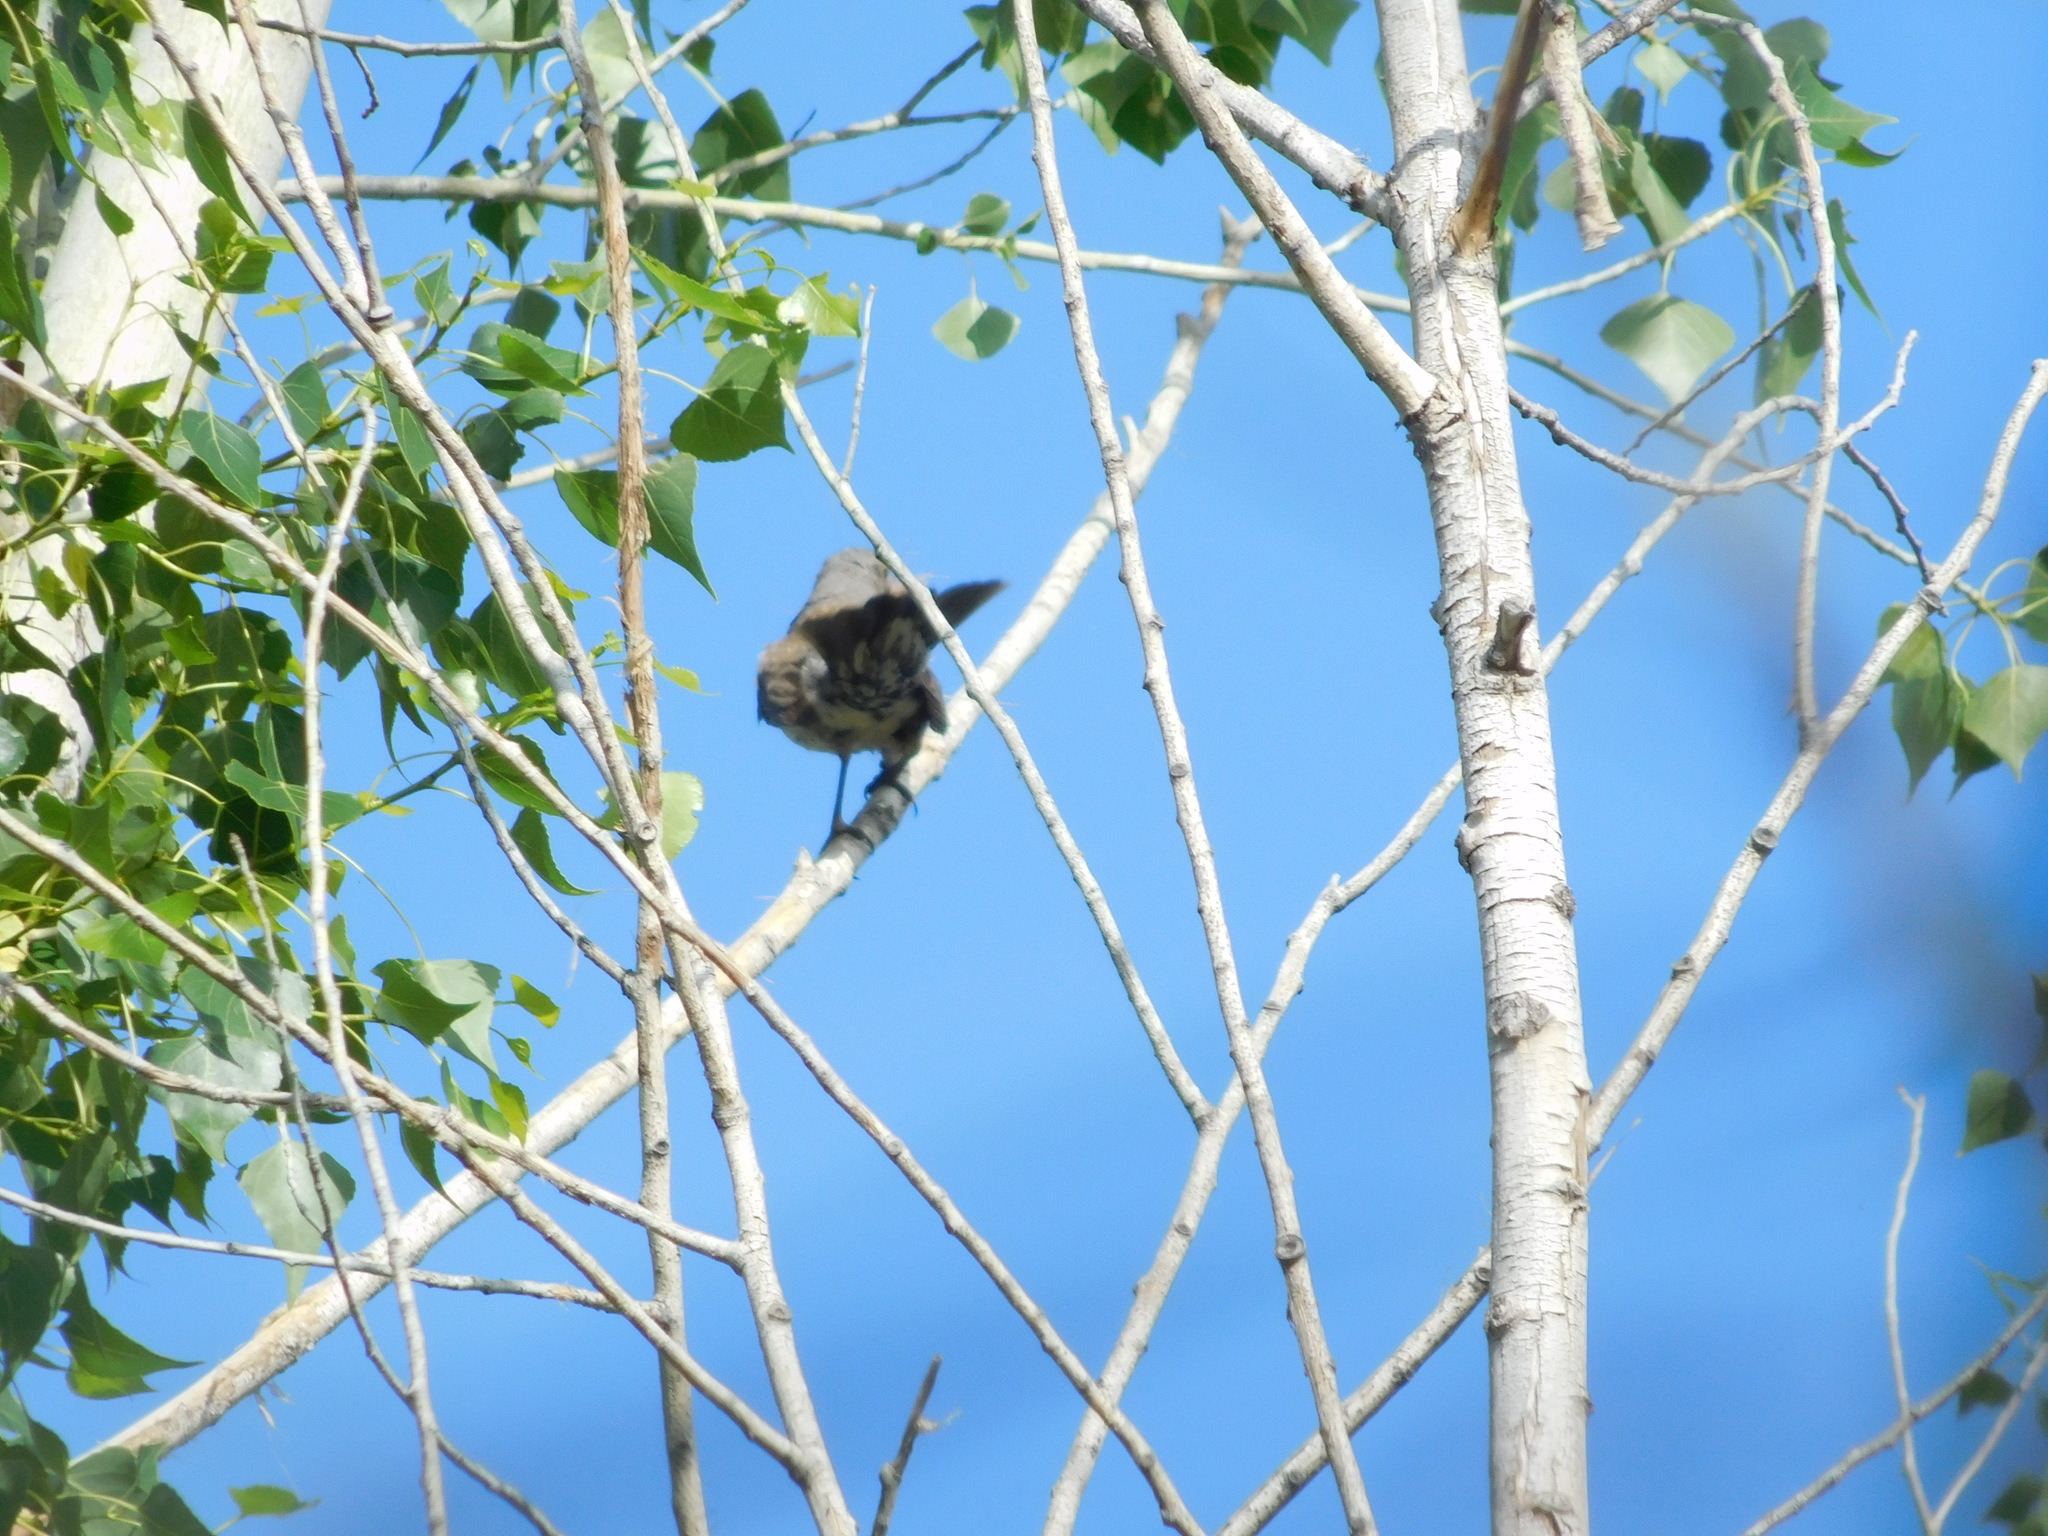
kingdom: Animalia
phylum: Chordata
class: Aves
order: Passeriformes
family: Turdidae
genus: Turdus
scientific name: Turdus pilaris
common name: Fieldfare
